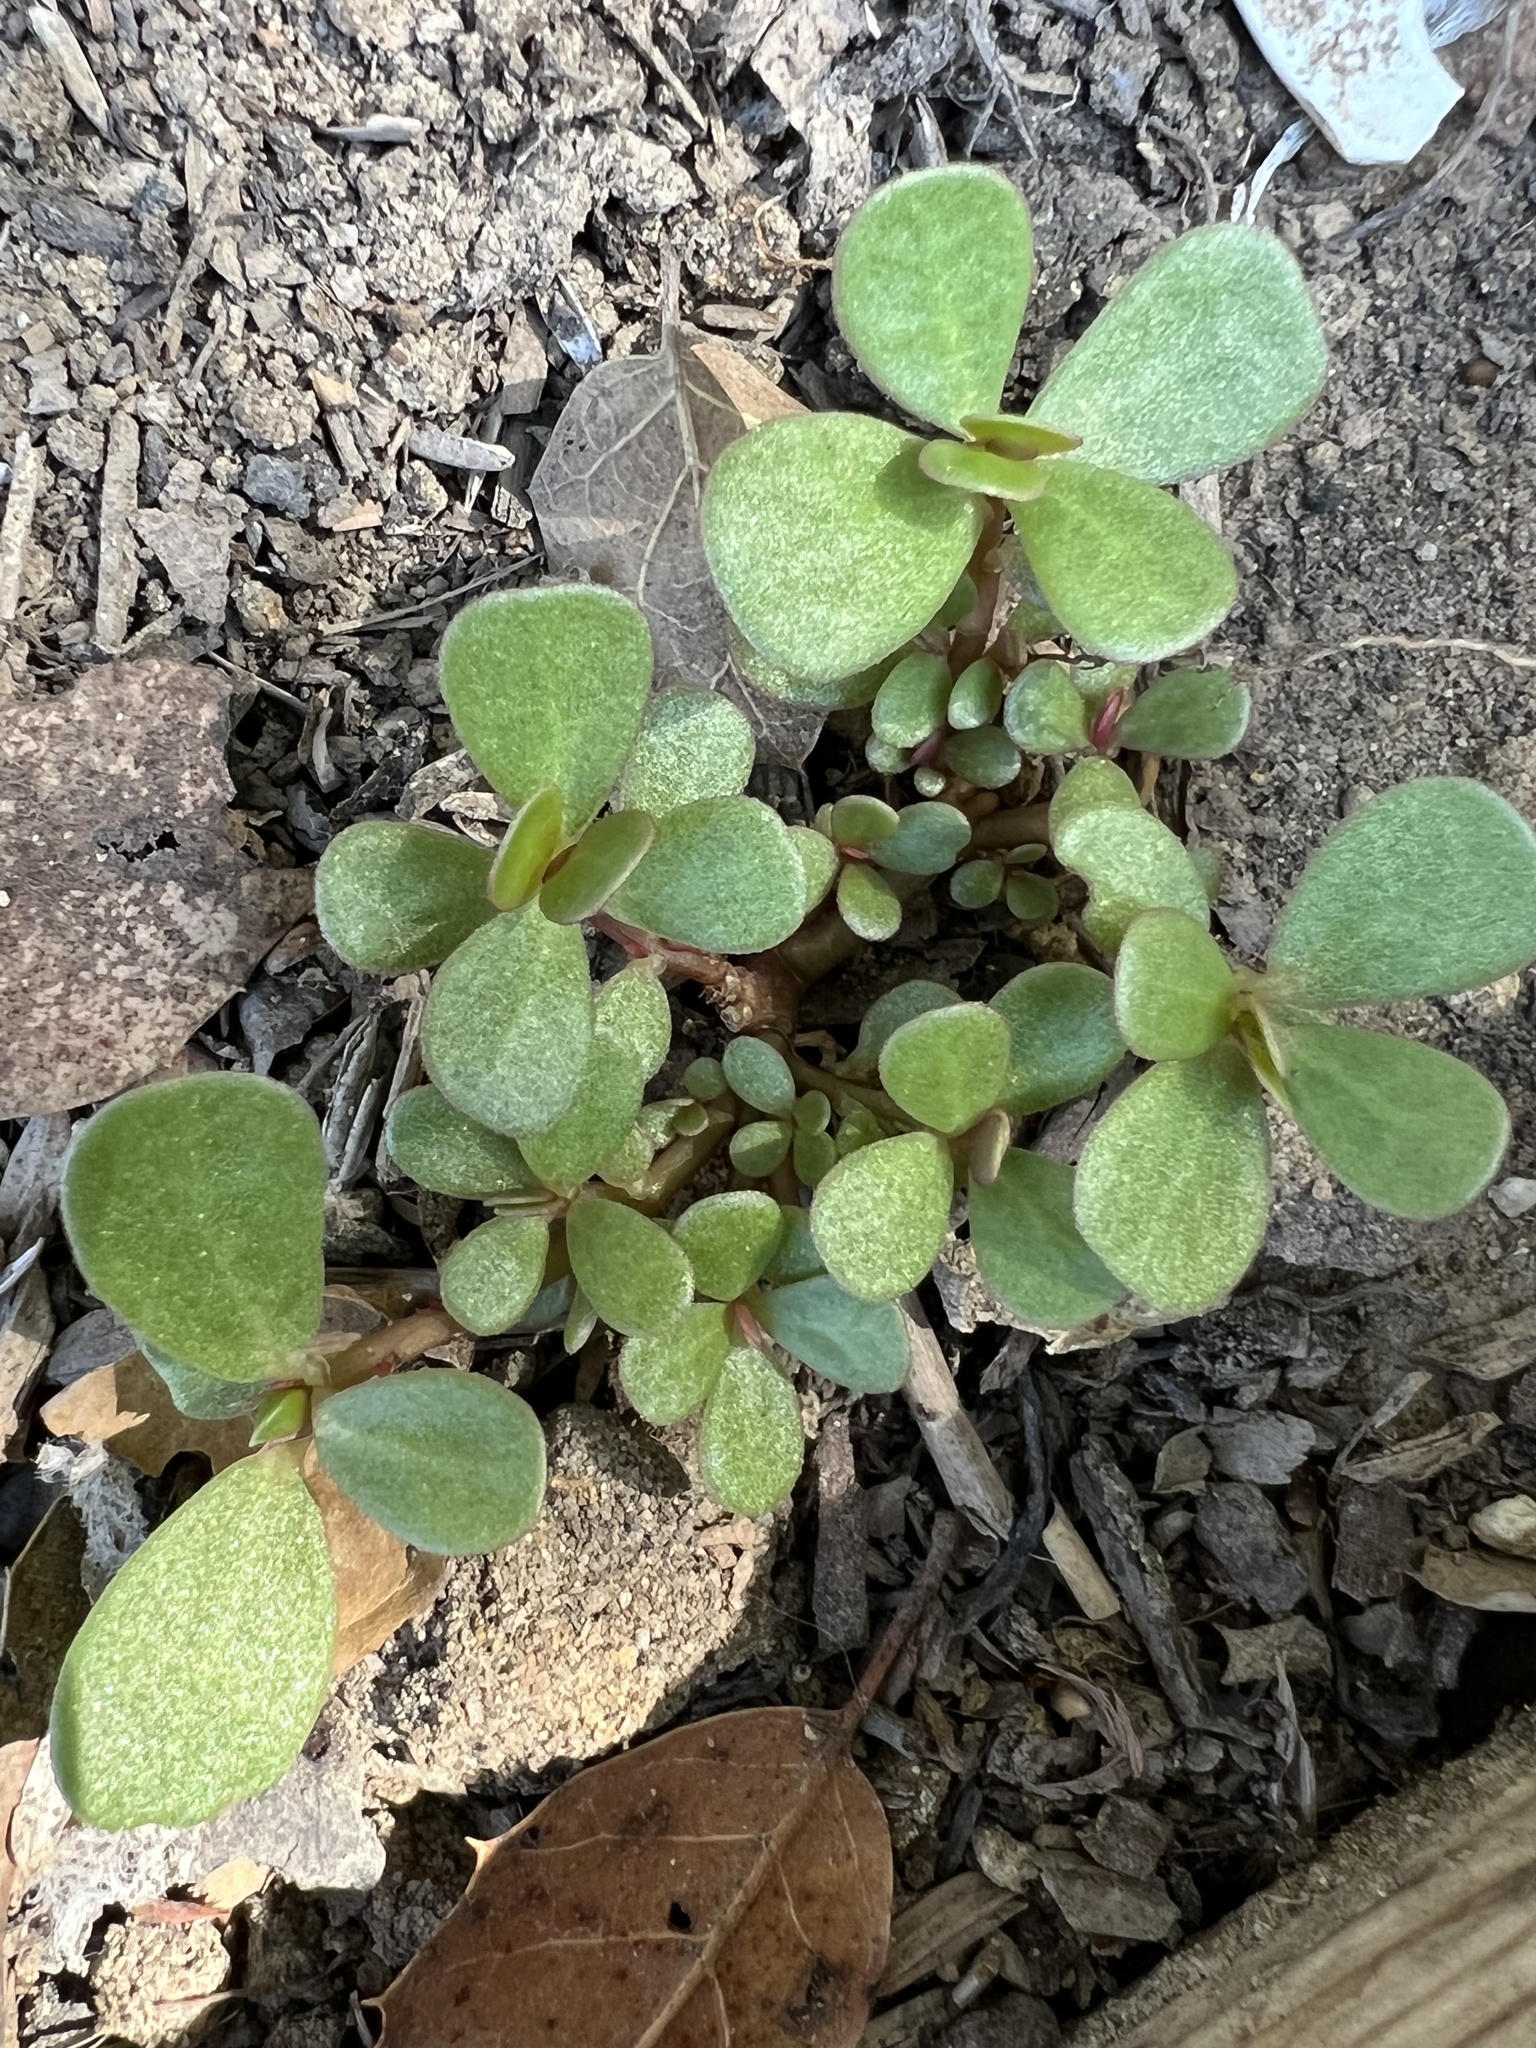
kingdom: Plantae
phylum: Tracheophyta
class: Magnoliopsida
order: Caryophyllales
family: Portulacaceae
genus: Portulaca
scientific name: Portulaca oleracea
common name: Common purslane
